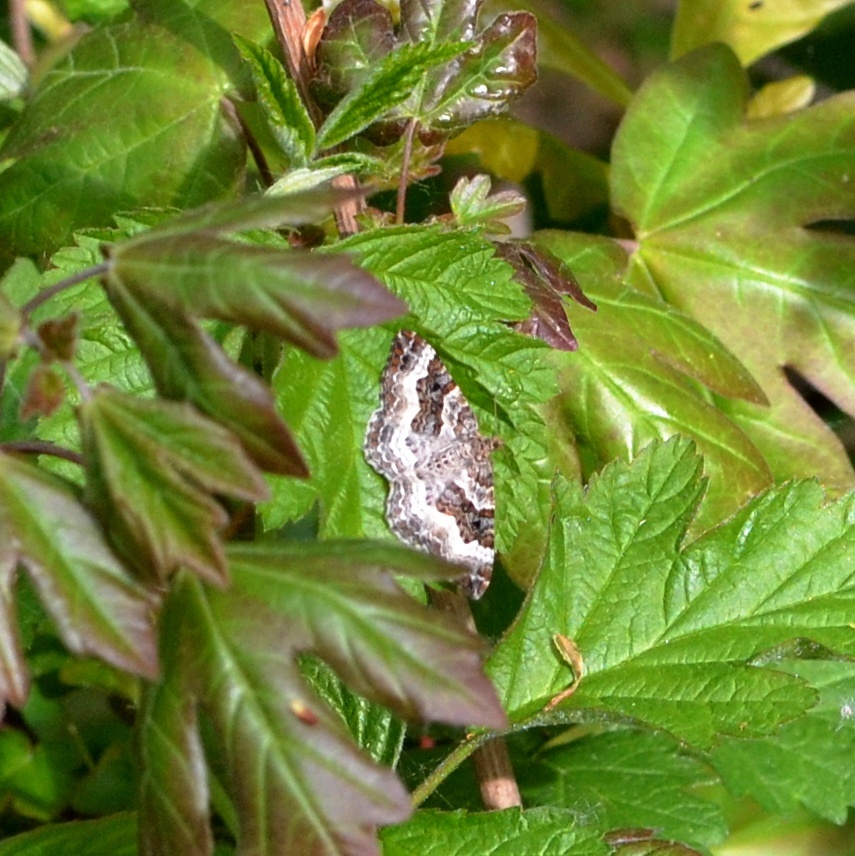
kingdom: Animalia
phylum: Arthropoda
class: Insecta
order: Lepidoptera
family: Geometridae
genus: Epirrhoe
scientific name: Epirrhoe alternata
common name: Common carpet
